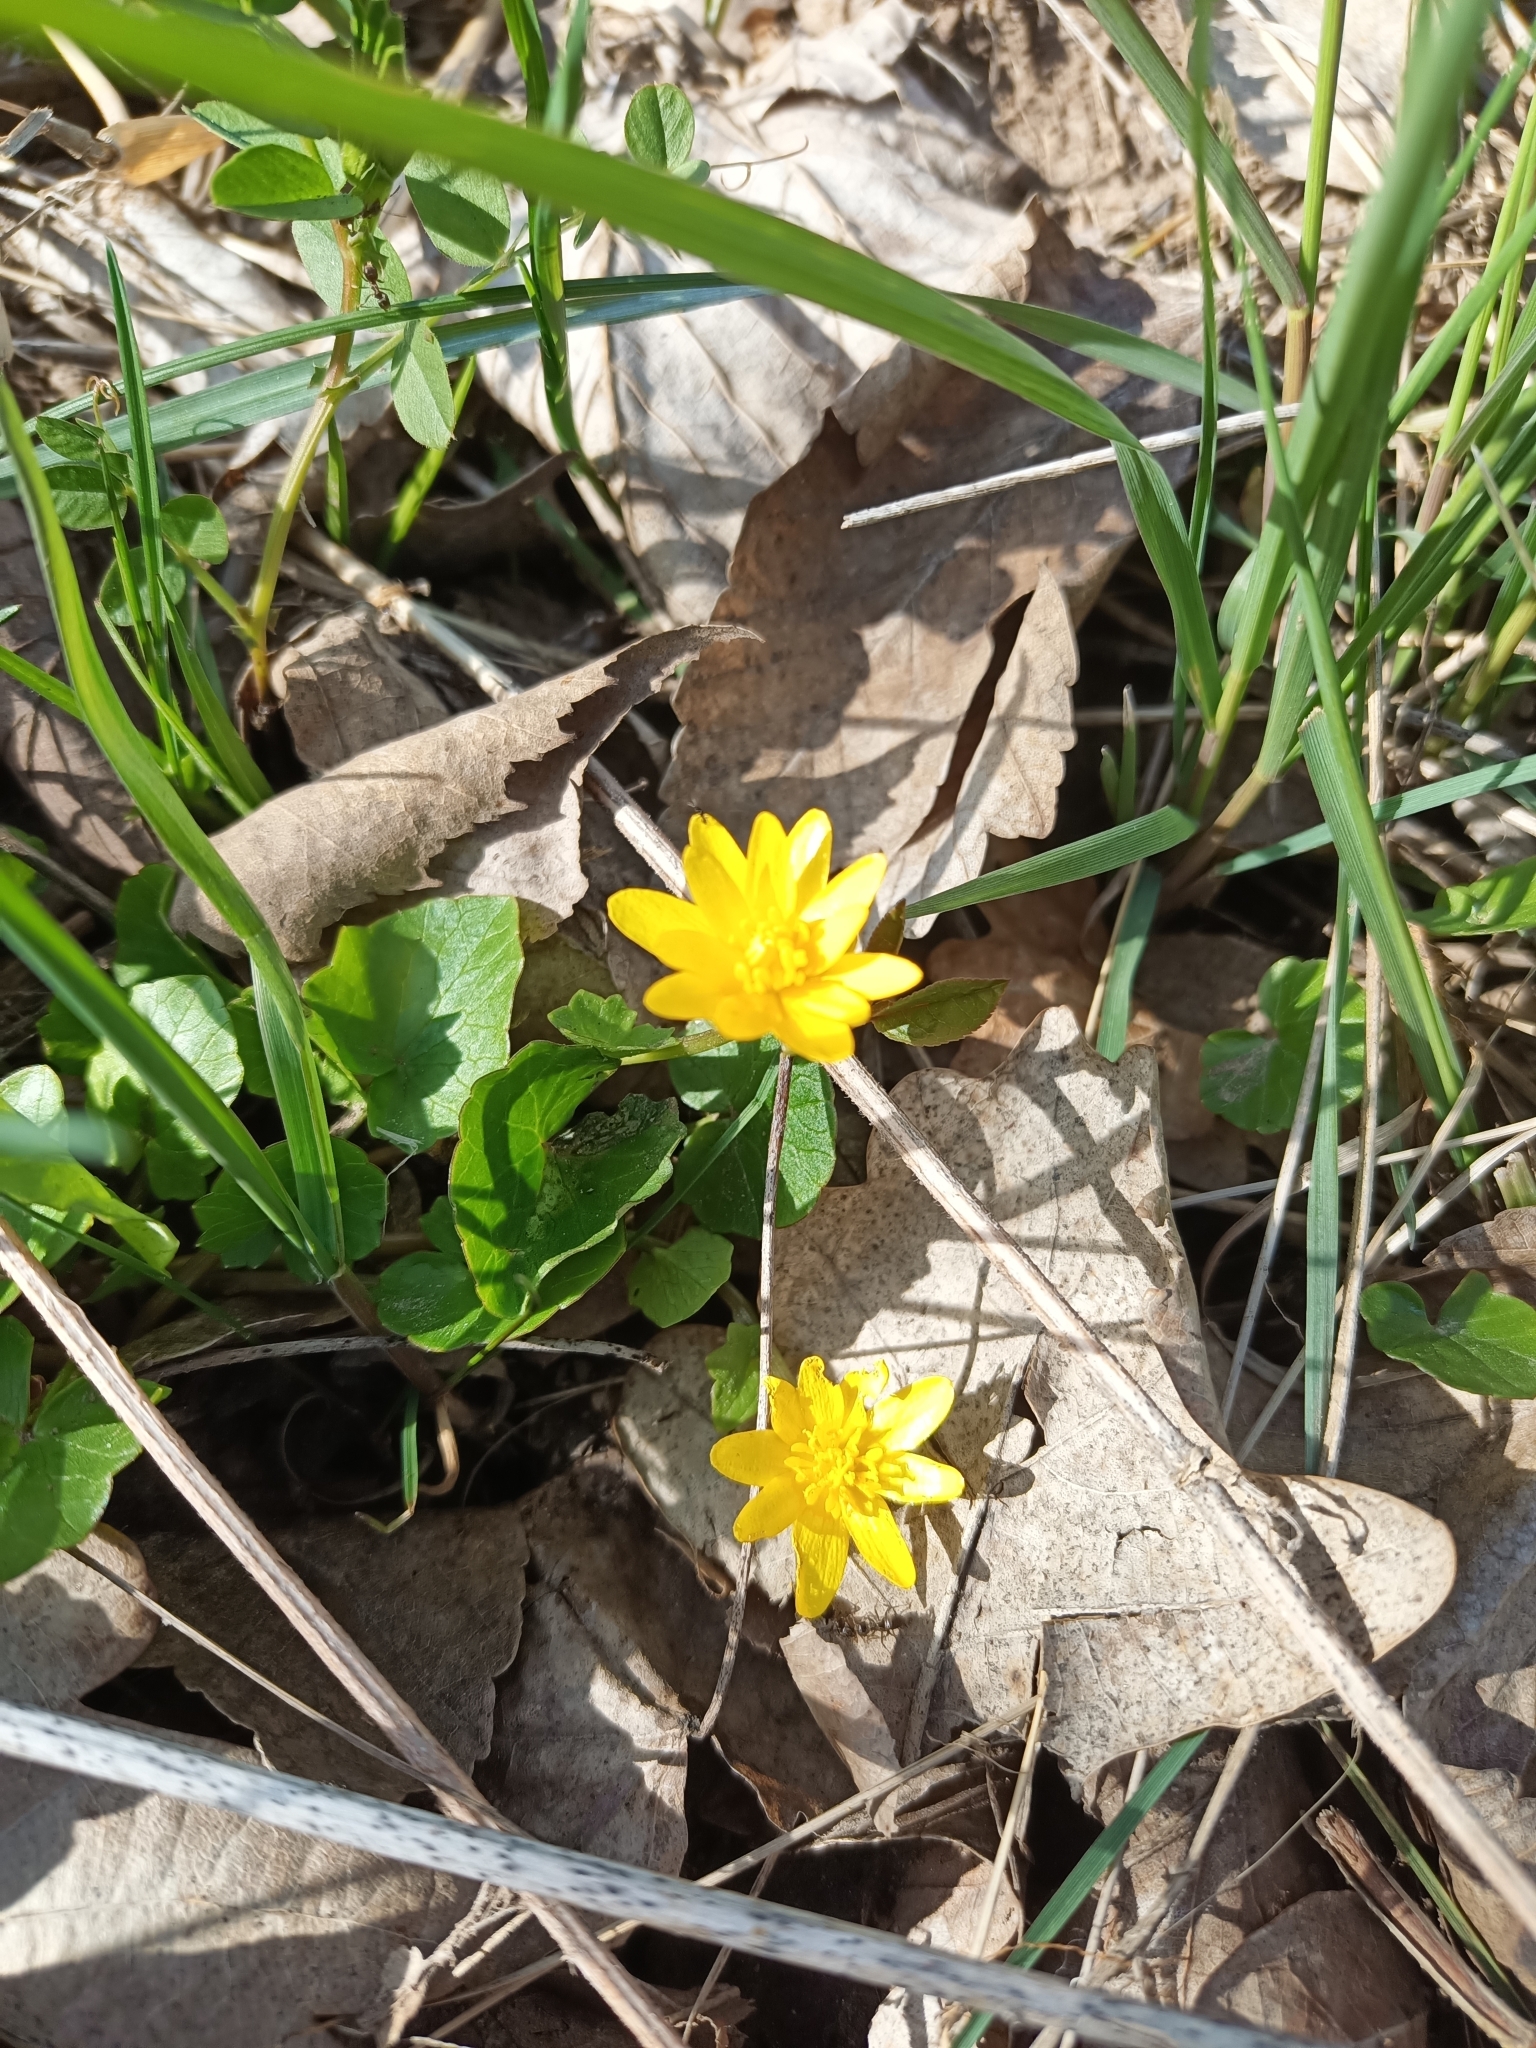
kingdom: Plantae
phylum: Tracheophyta
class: Magnoliopsida
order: Ranunculales
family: Ranunculaceae
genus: Ficaria
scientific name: Ficaria verna
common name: Lesser celandine
